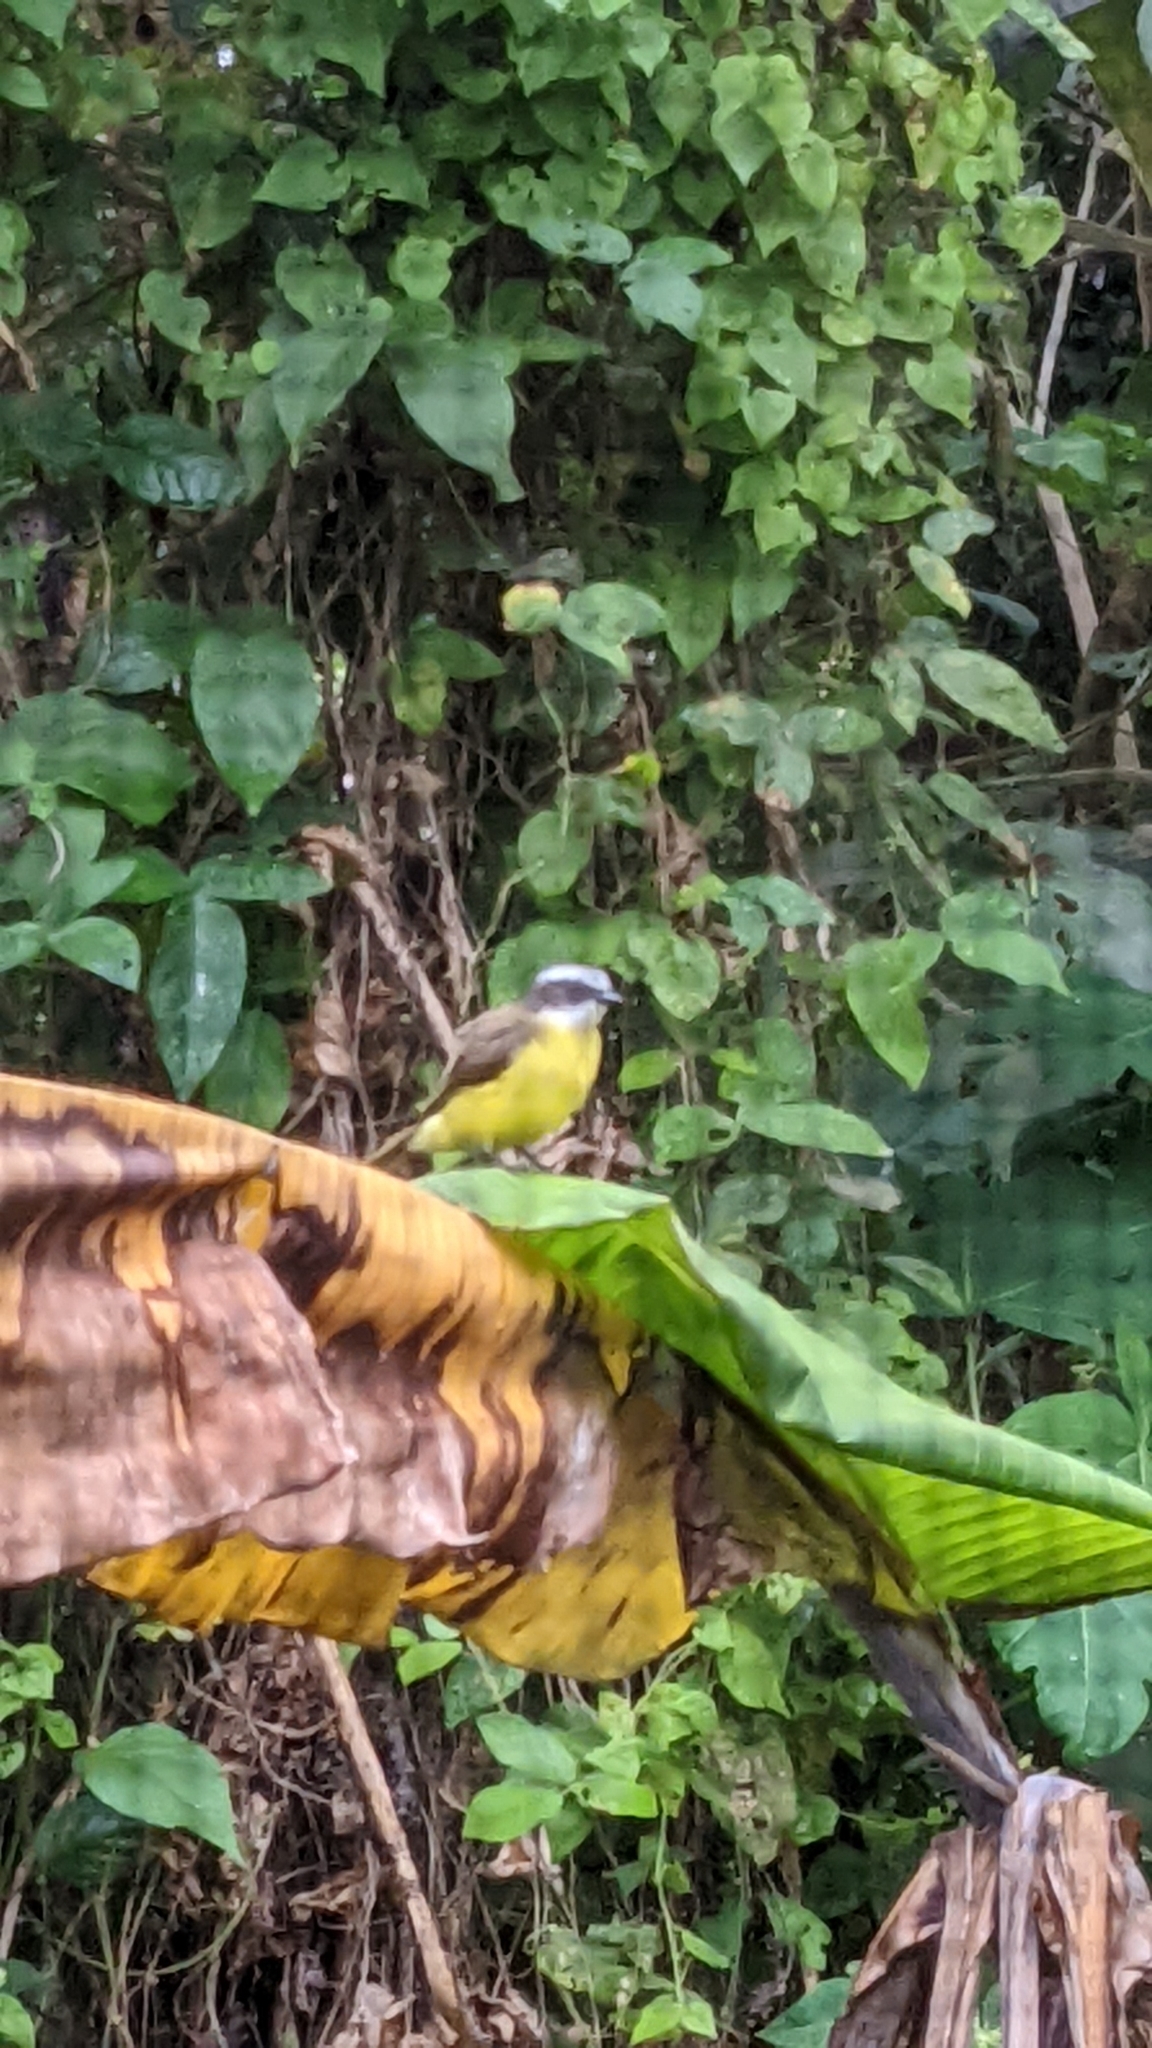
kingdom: Animalia
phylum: Chordata
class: Aves
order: Passeriformes
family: Tyrannidae
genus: Myiozetetes
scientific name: Myiozetetes similis
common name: Social flycatcher
